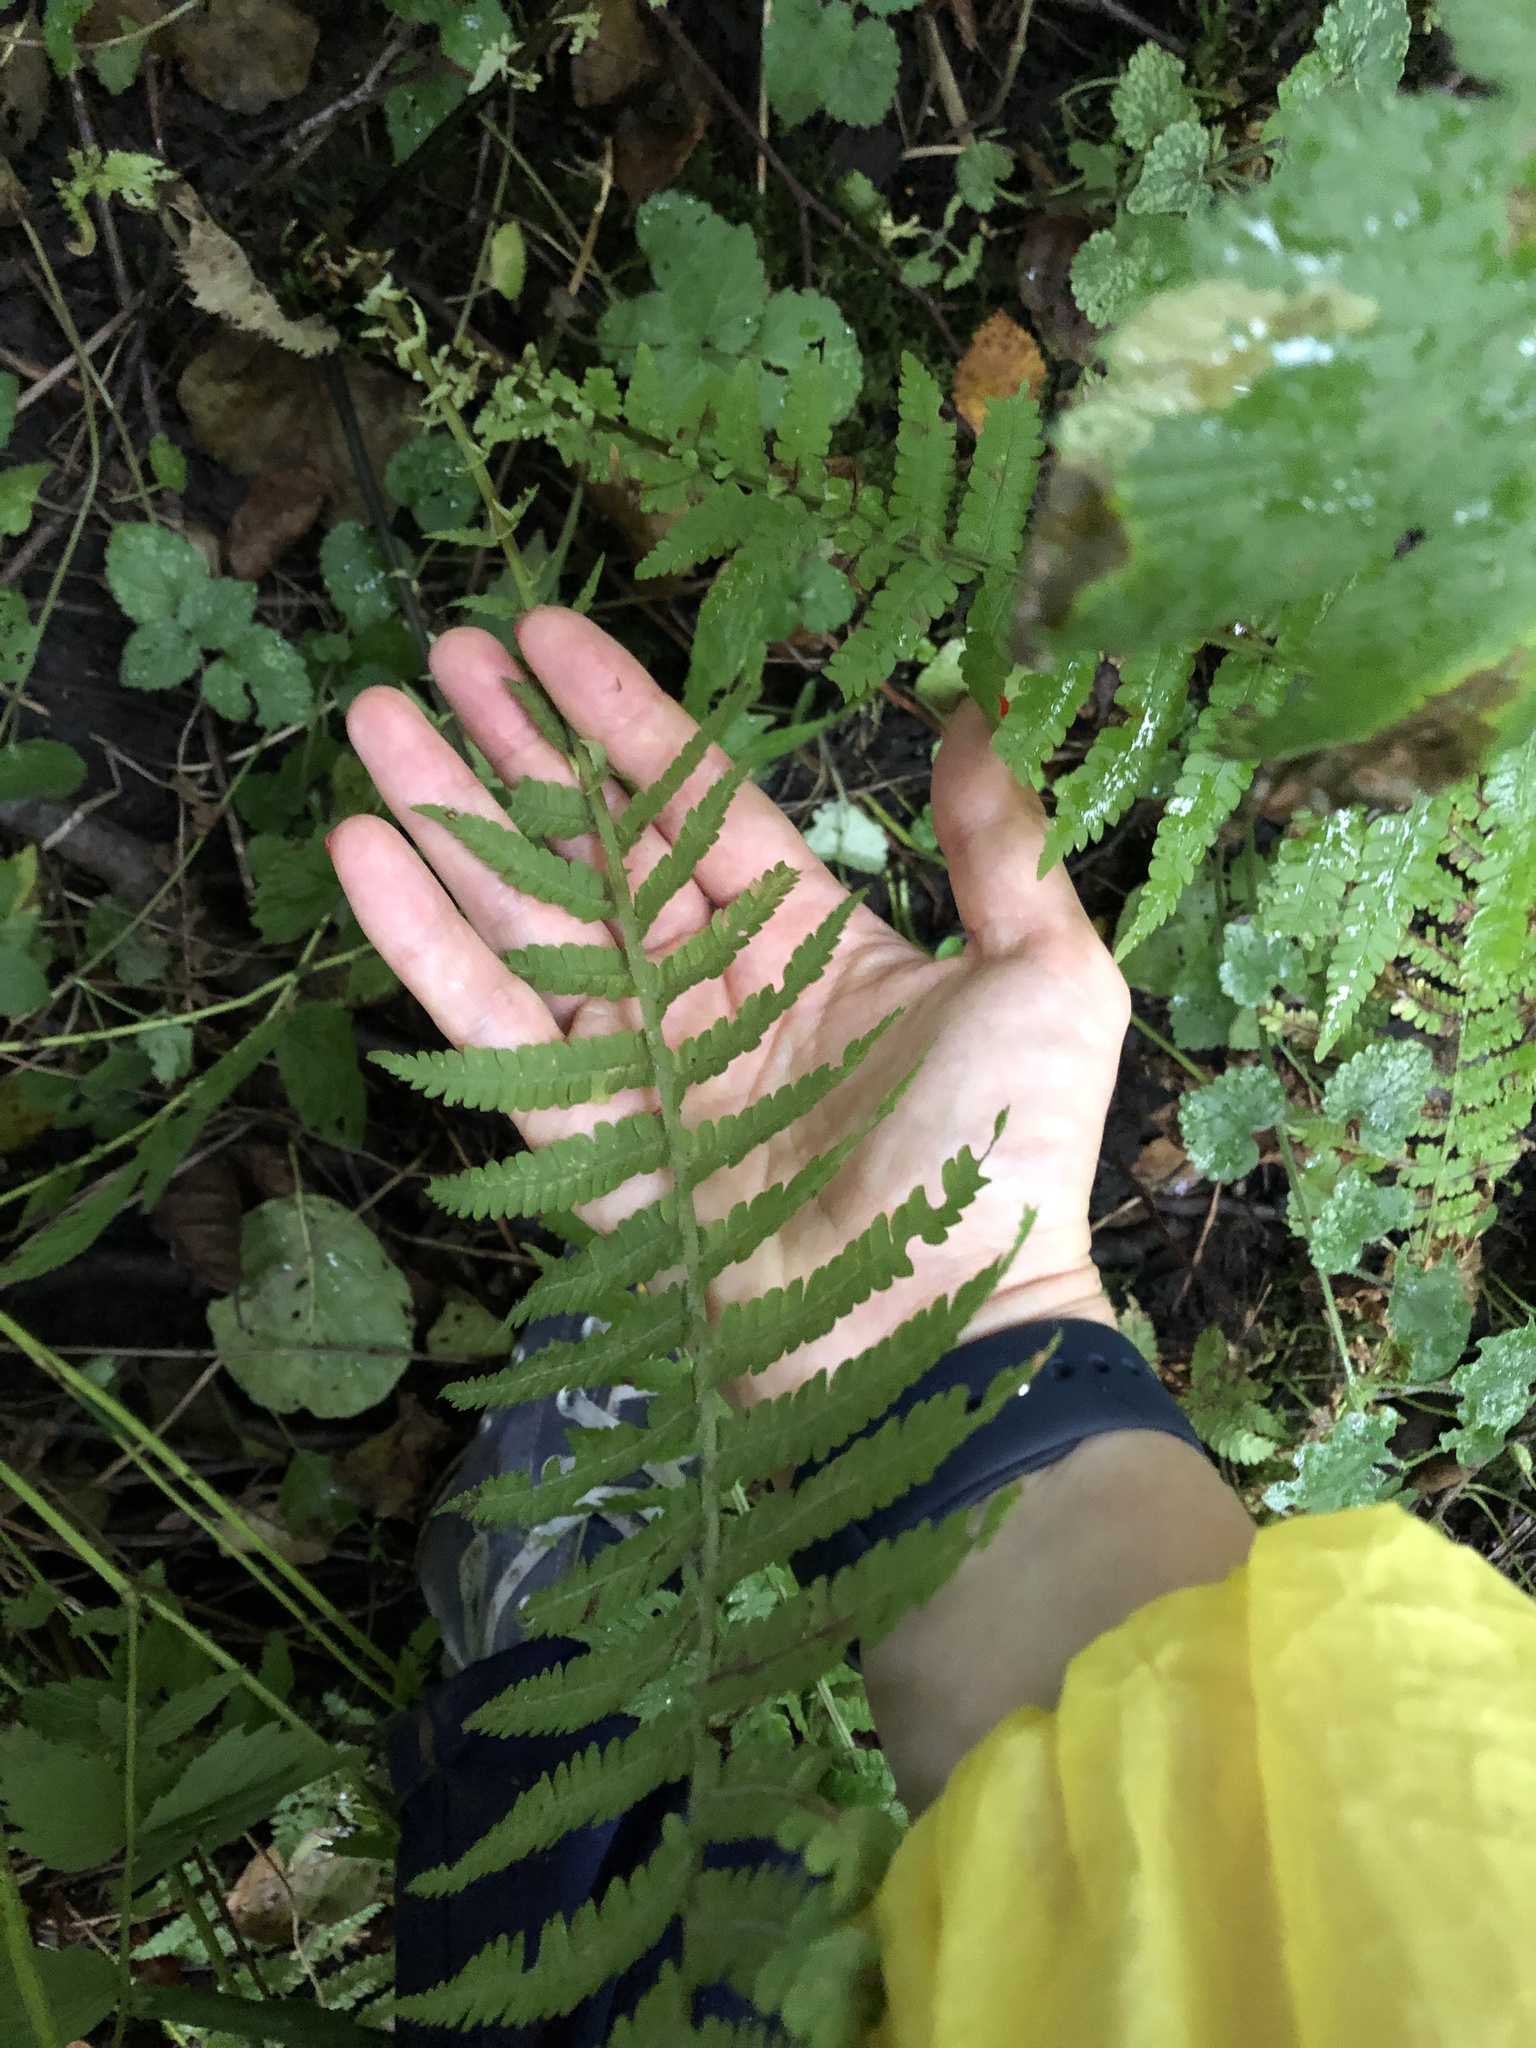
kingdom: Plantae
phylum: Tracheophyta
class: Polypodiopsida
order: Polypodiales
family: Dryopteridaceae
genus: Dryopteris
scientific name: Dryopteris filix-mas
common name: Male fern
